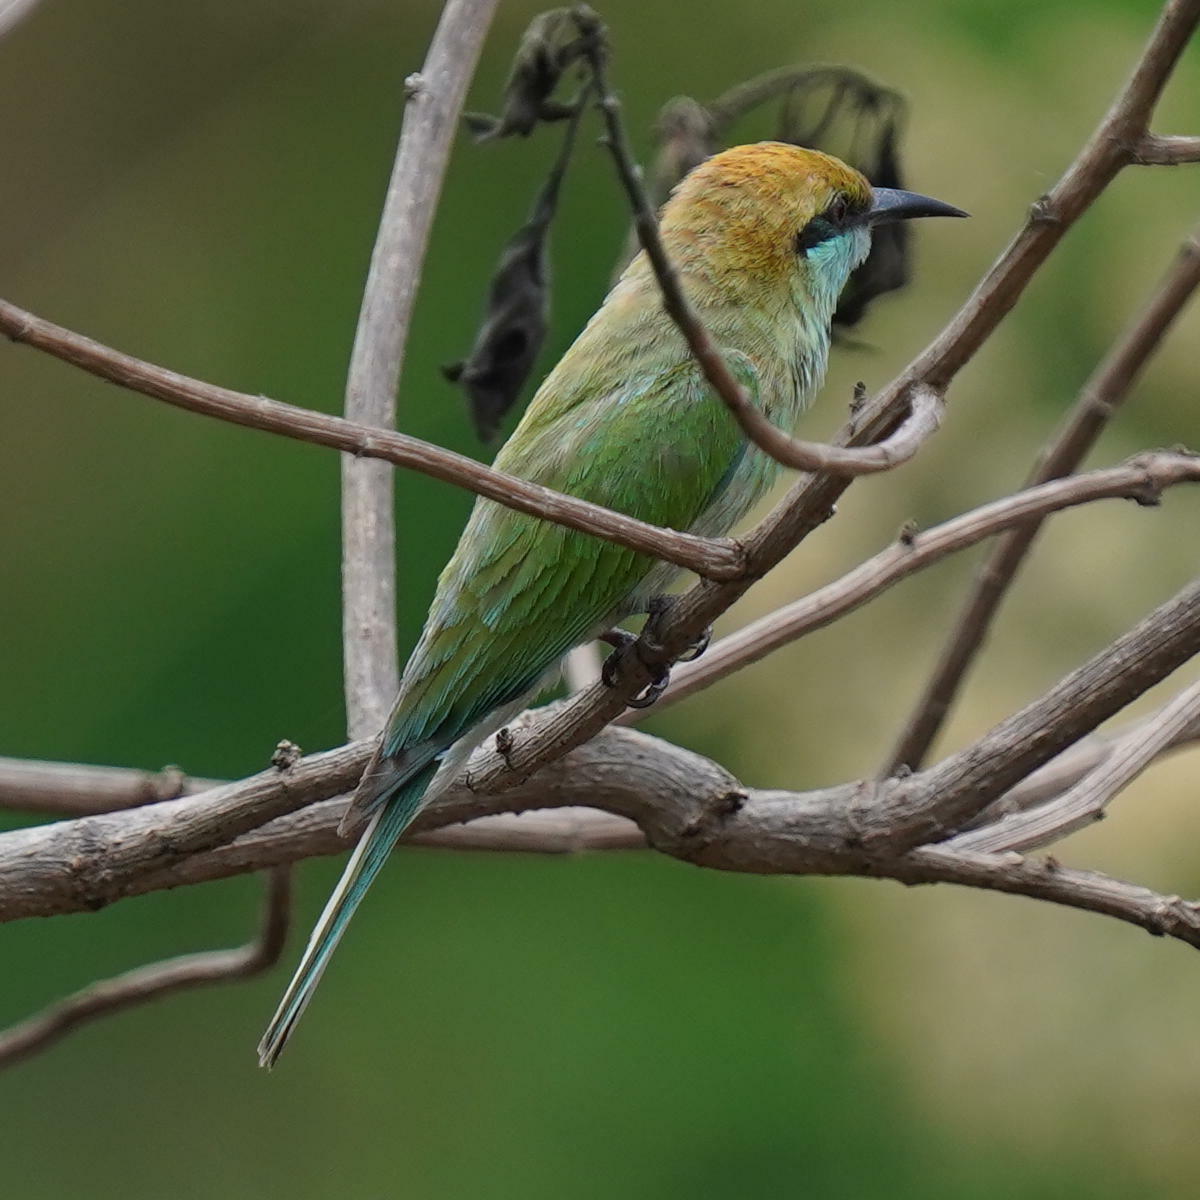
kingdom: Animalia
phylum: Chordata
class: Aves
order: Coraciiformes
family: Meropidae
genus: Merops
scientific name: Merops orientalis
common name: Green bee-eater
